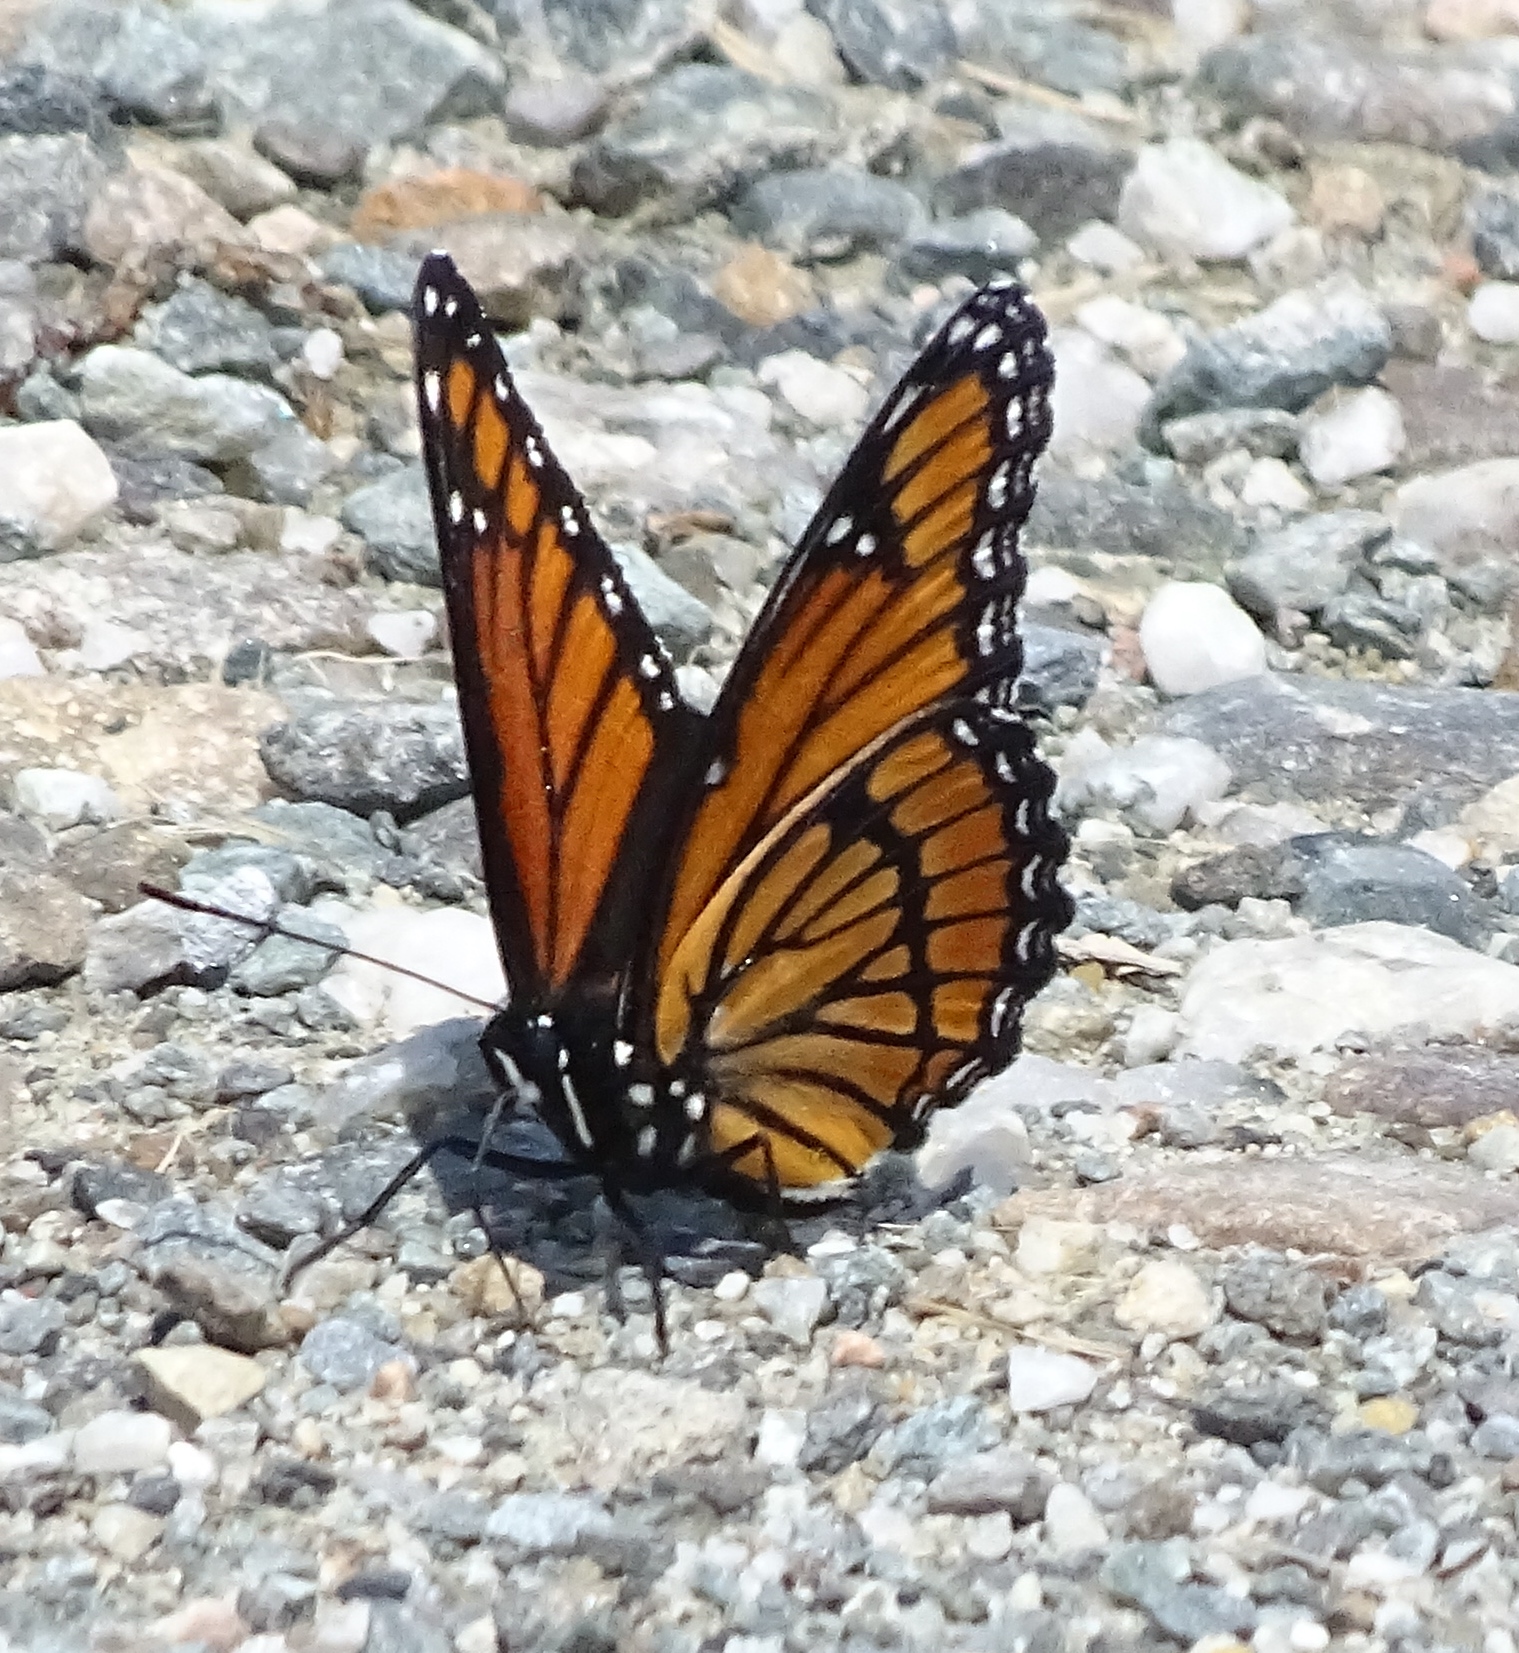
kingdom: Animalia
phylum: Arthropoda
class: Insecta
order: Lepidoptera
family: Nymphalidae
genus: Limenitis
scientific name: Limenitis archippus
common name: Viceroy
